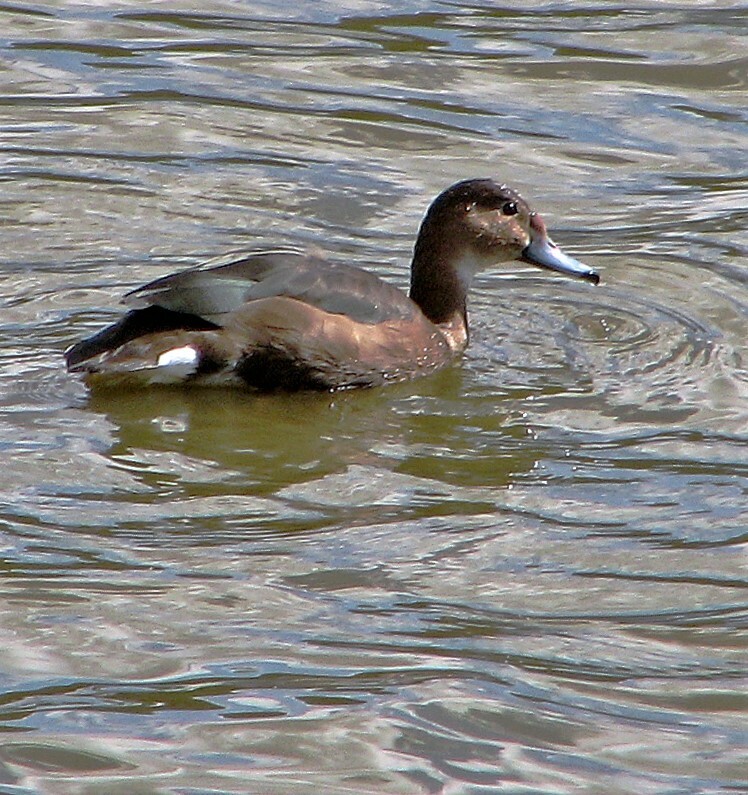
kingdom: Animalia
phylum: Chordata
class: Aves
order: Anseriformes
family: Anatidae
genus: Netta
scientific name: Netta peposaca
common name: Rosy-billed pochard
